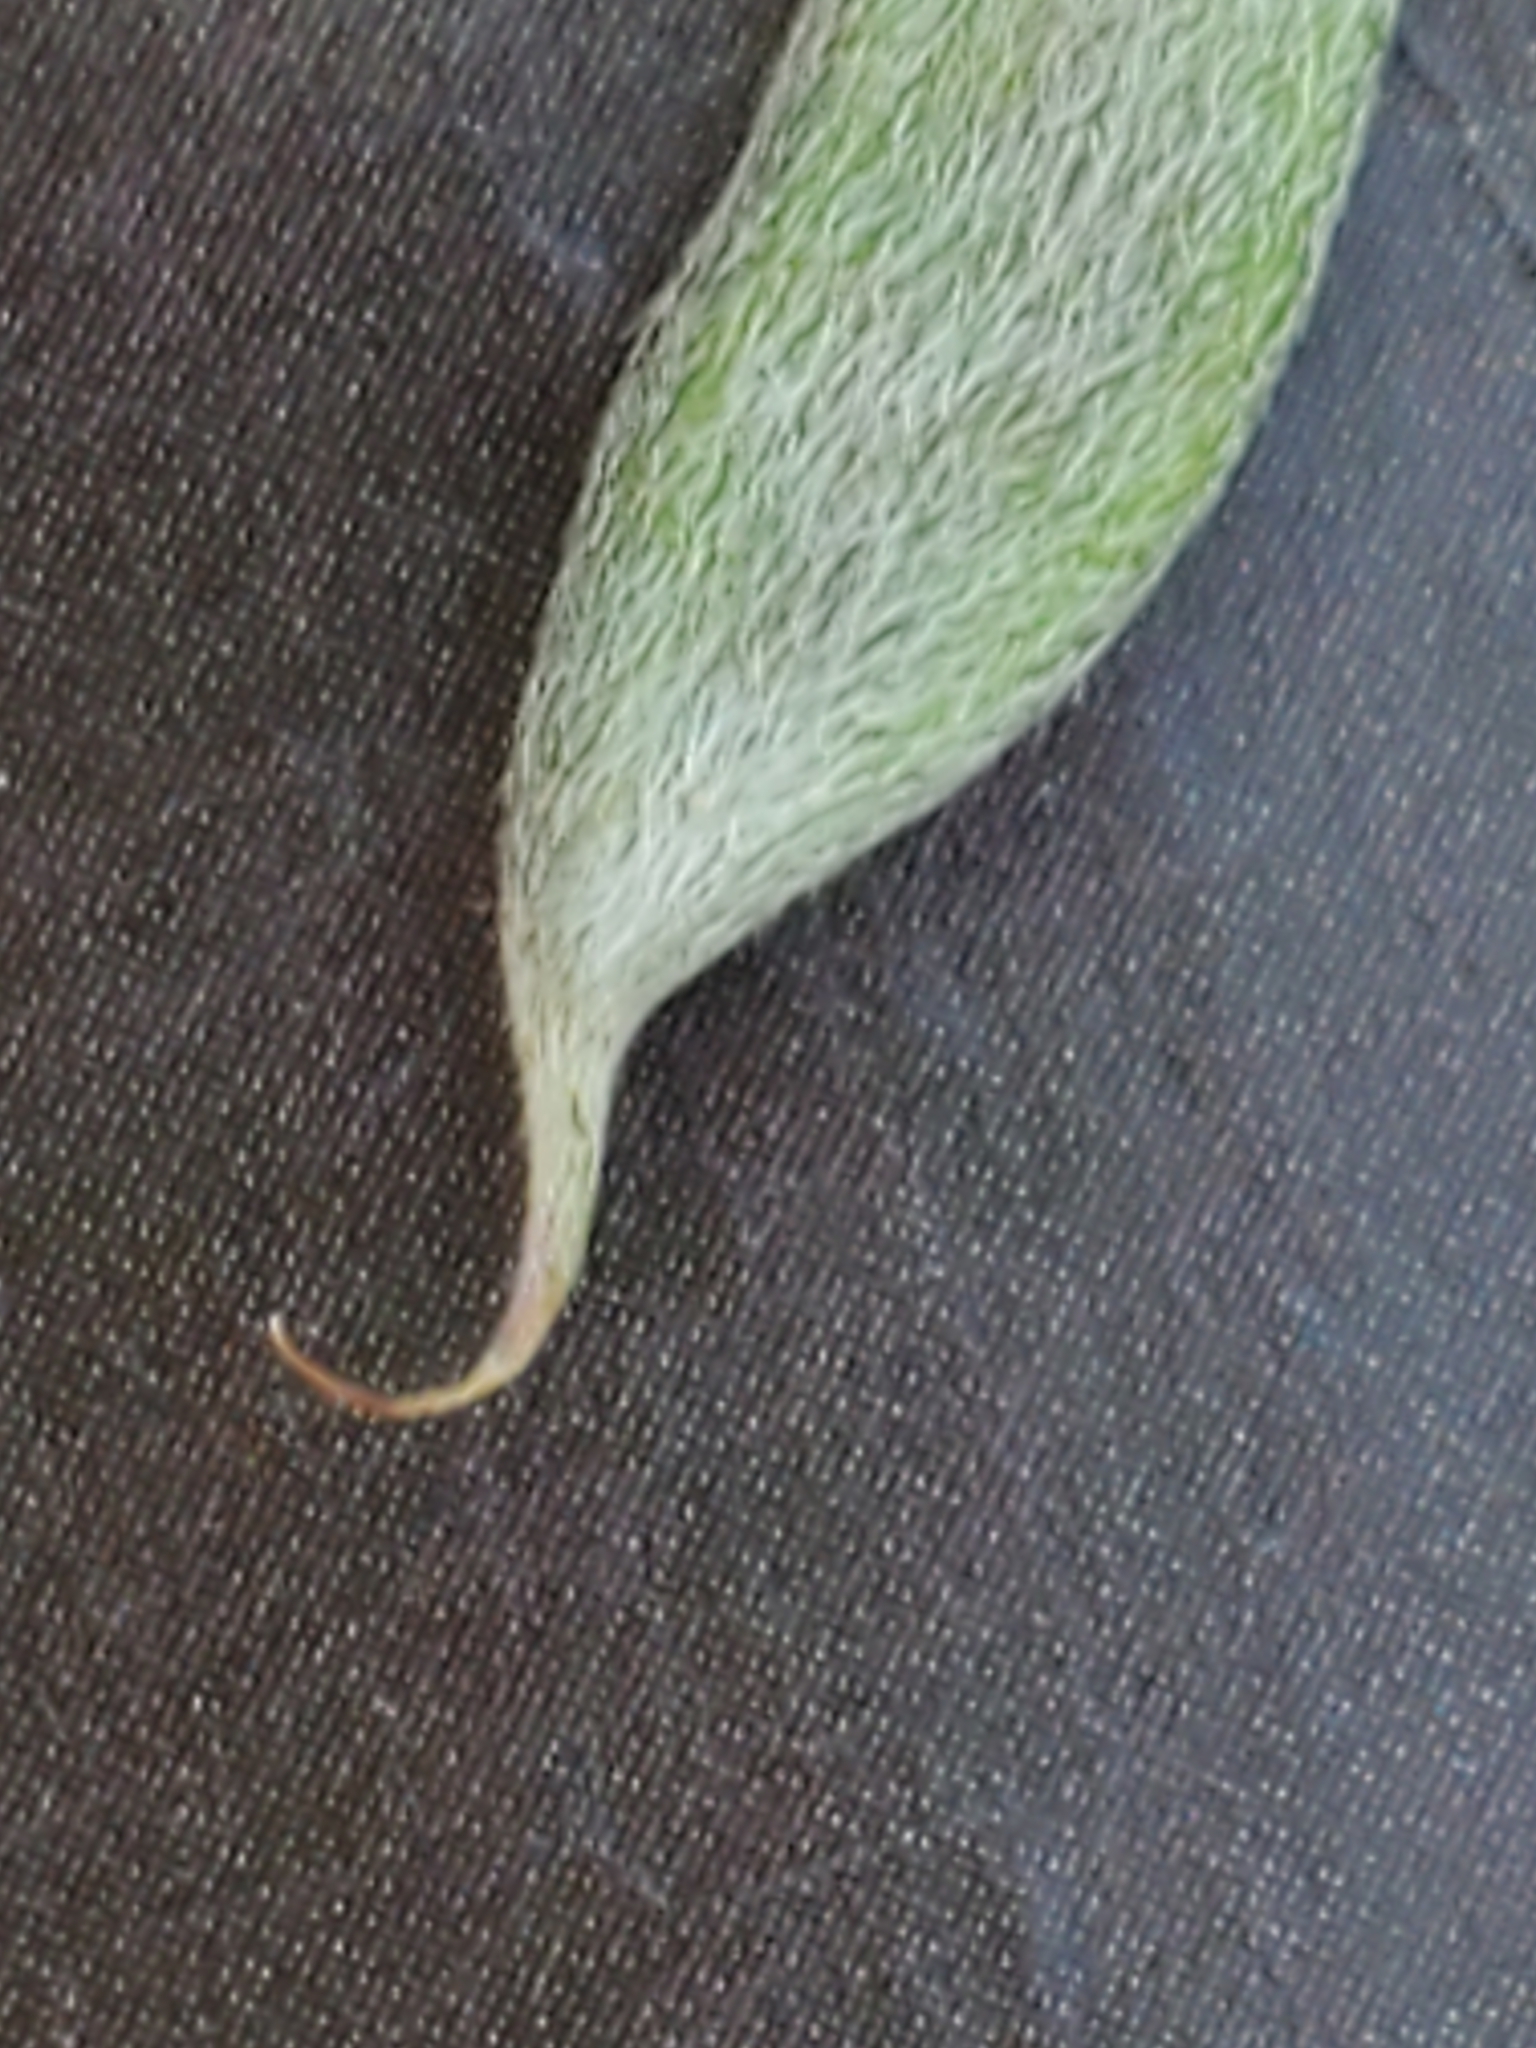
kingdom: Plantae
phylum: Tracheophyta
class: Magnoliopsida
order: Fabales
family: Fabaceae
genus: Galactia
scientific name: Galactia regularis
